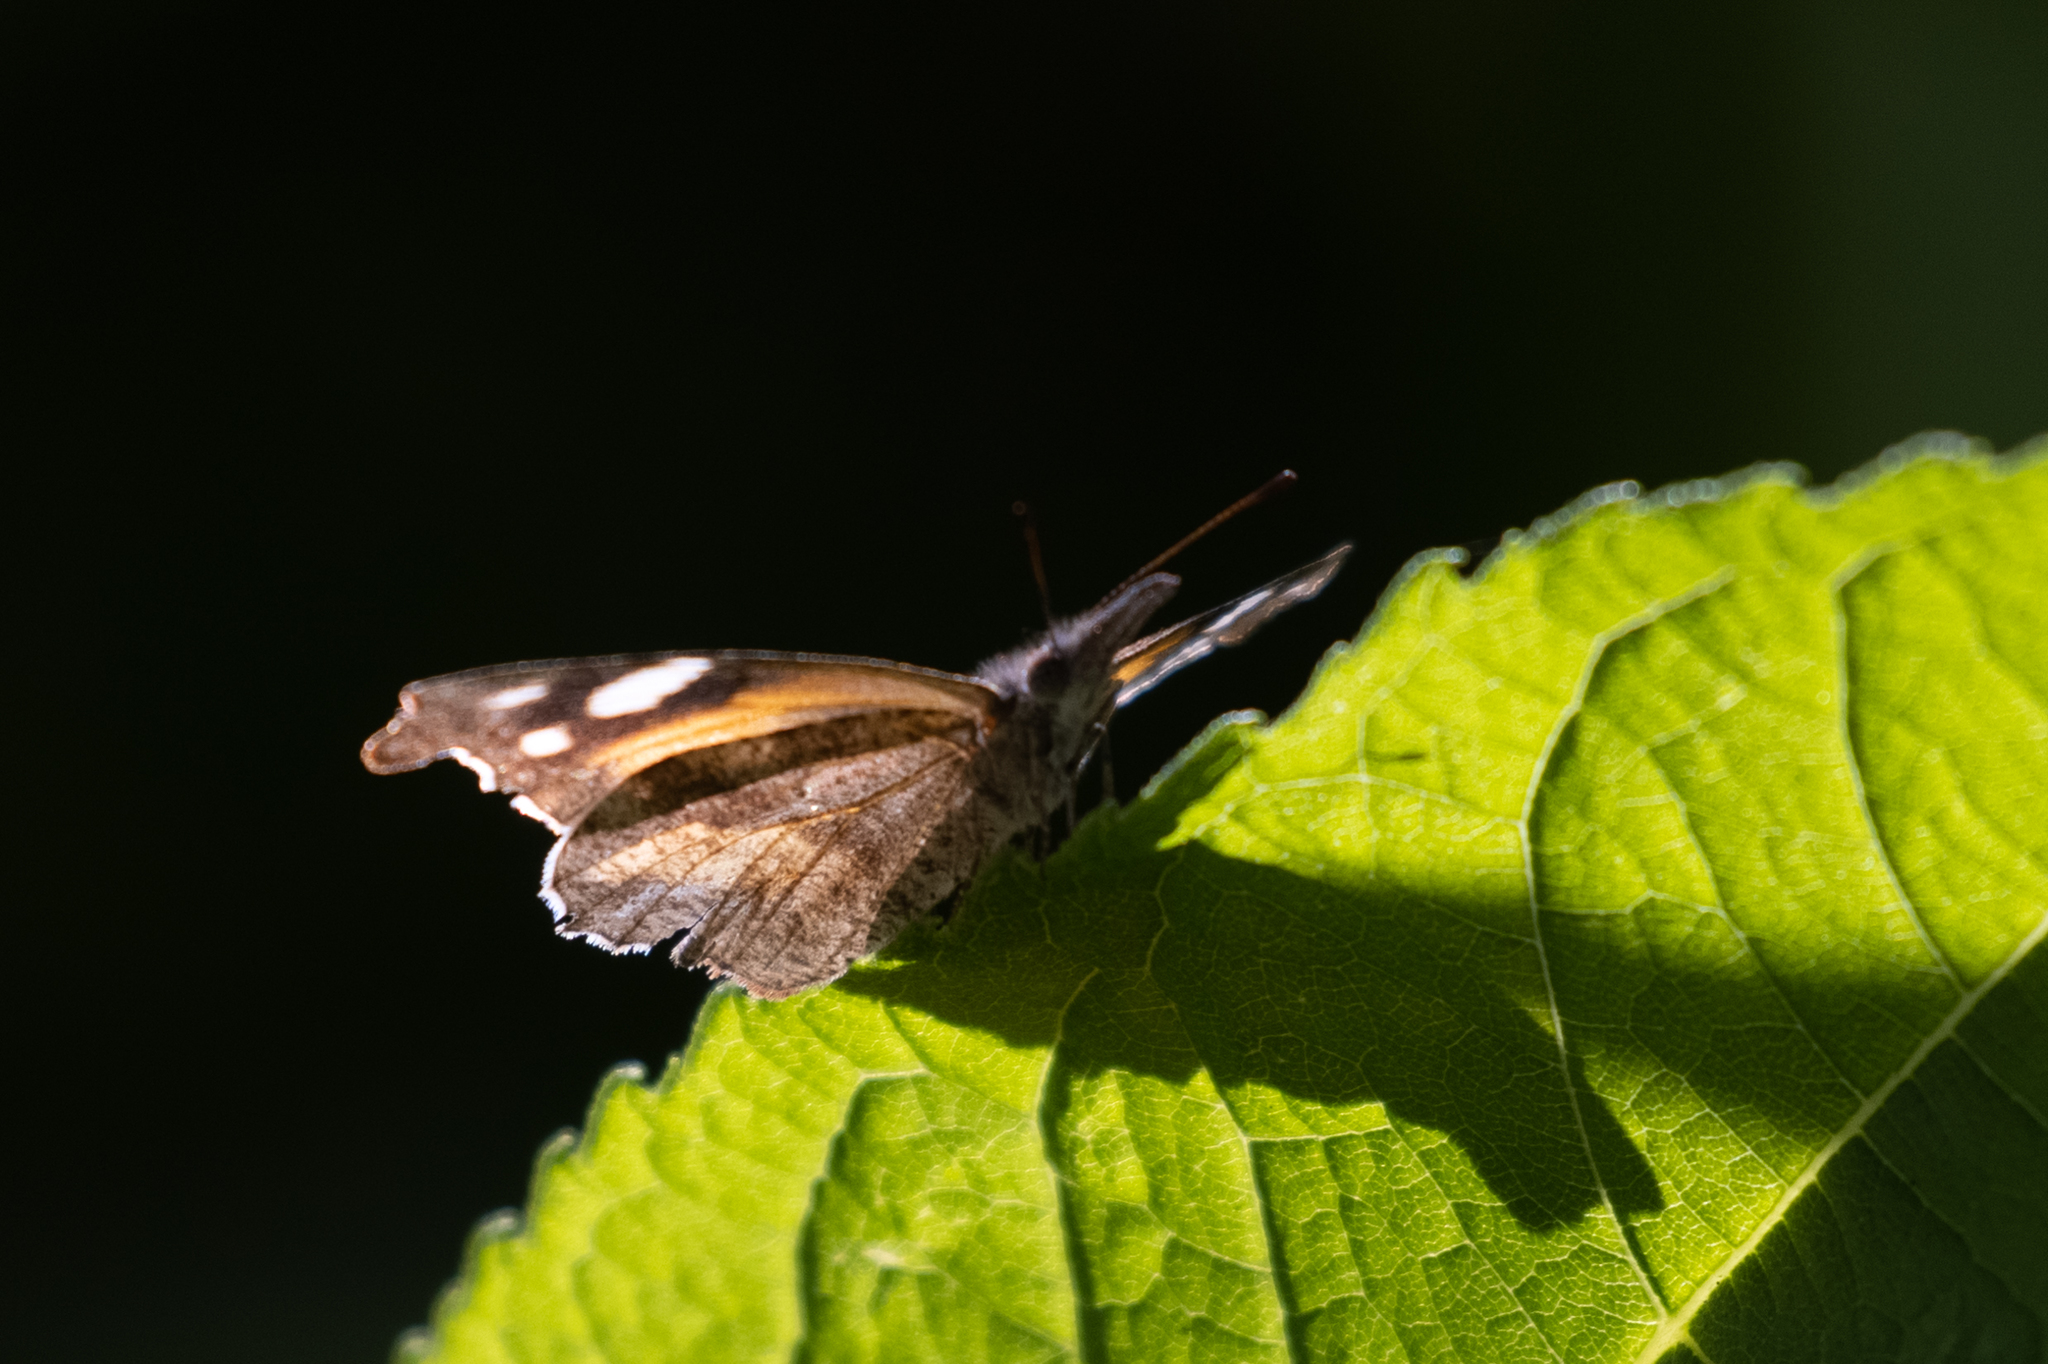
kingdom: Animalia
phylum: Arthropoda
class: Insecta
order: Lepidoptera
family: Nymphalidae
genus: Libytheana
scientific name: Libytheana carinenta
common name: American snout
